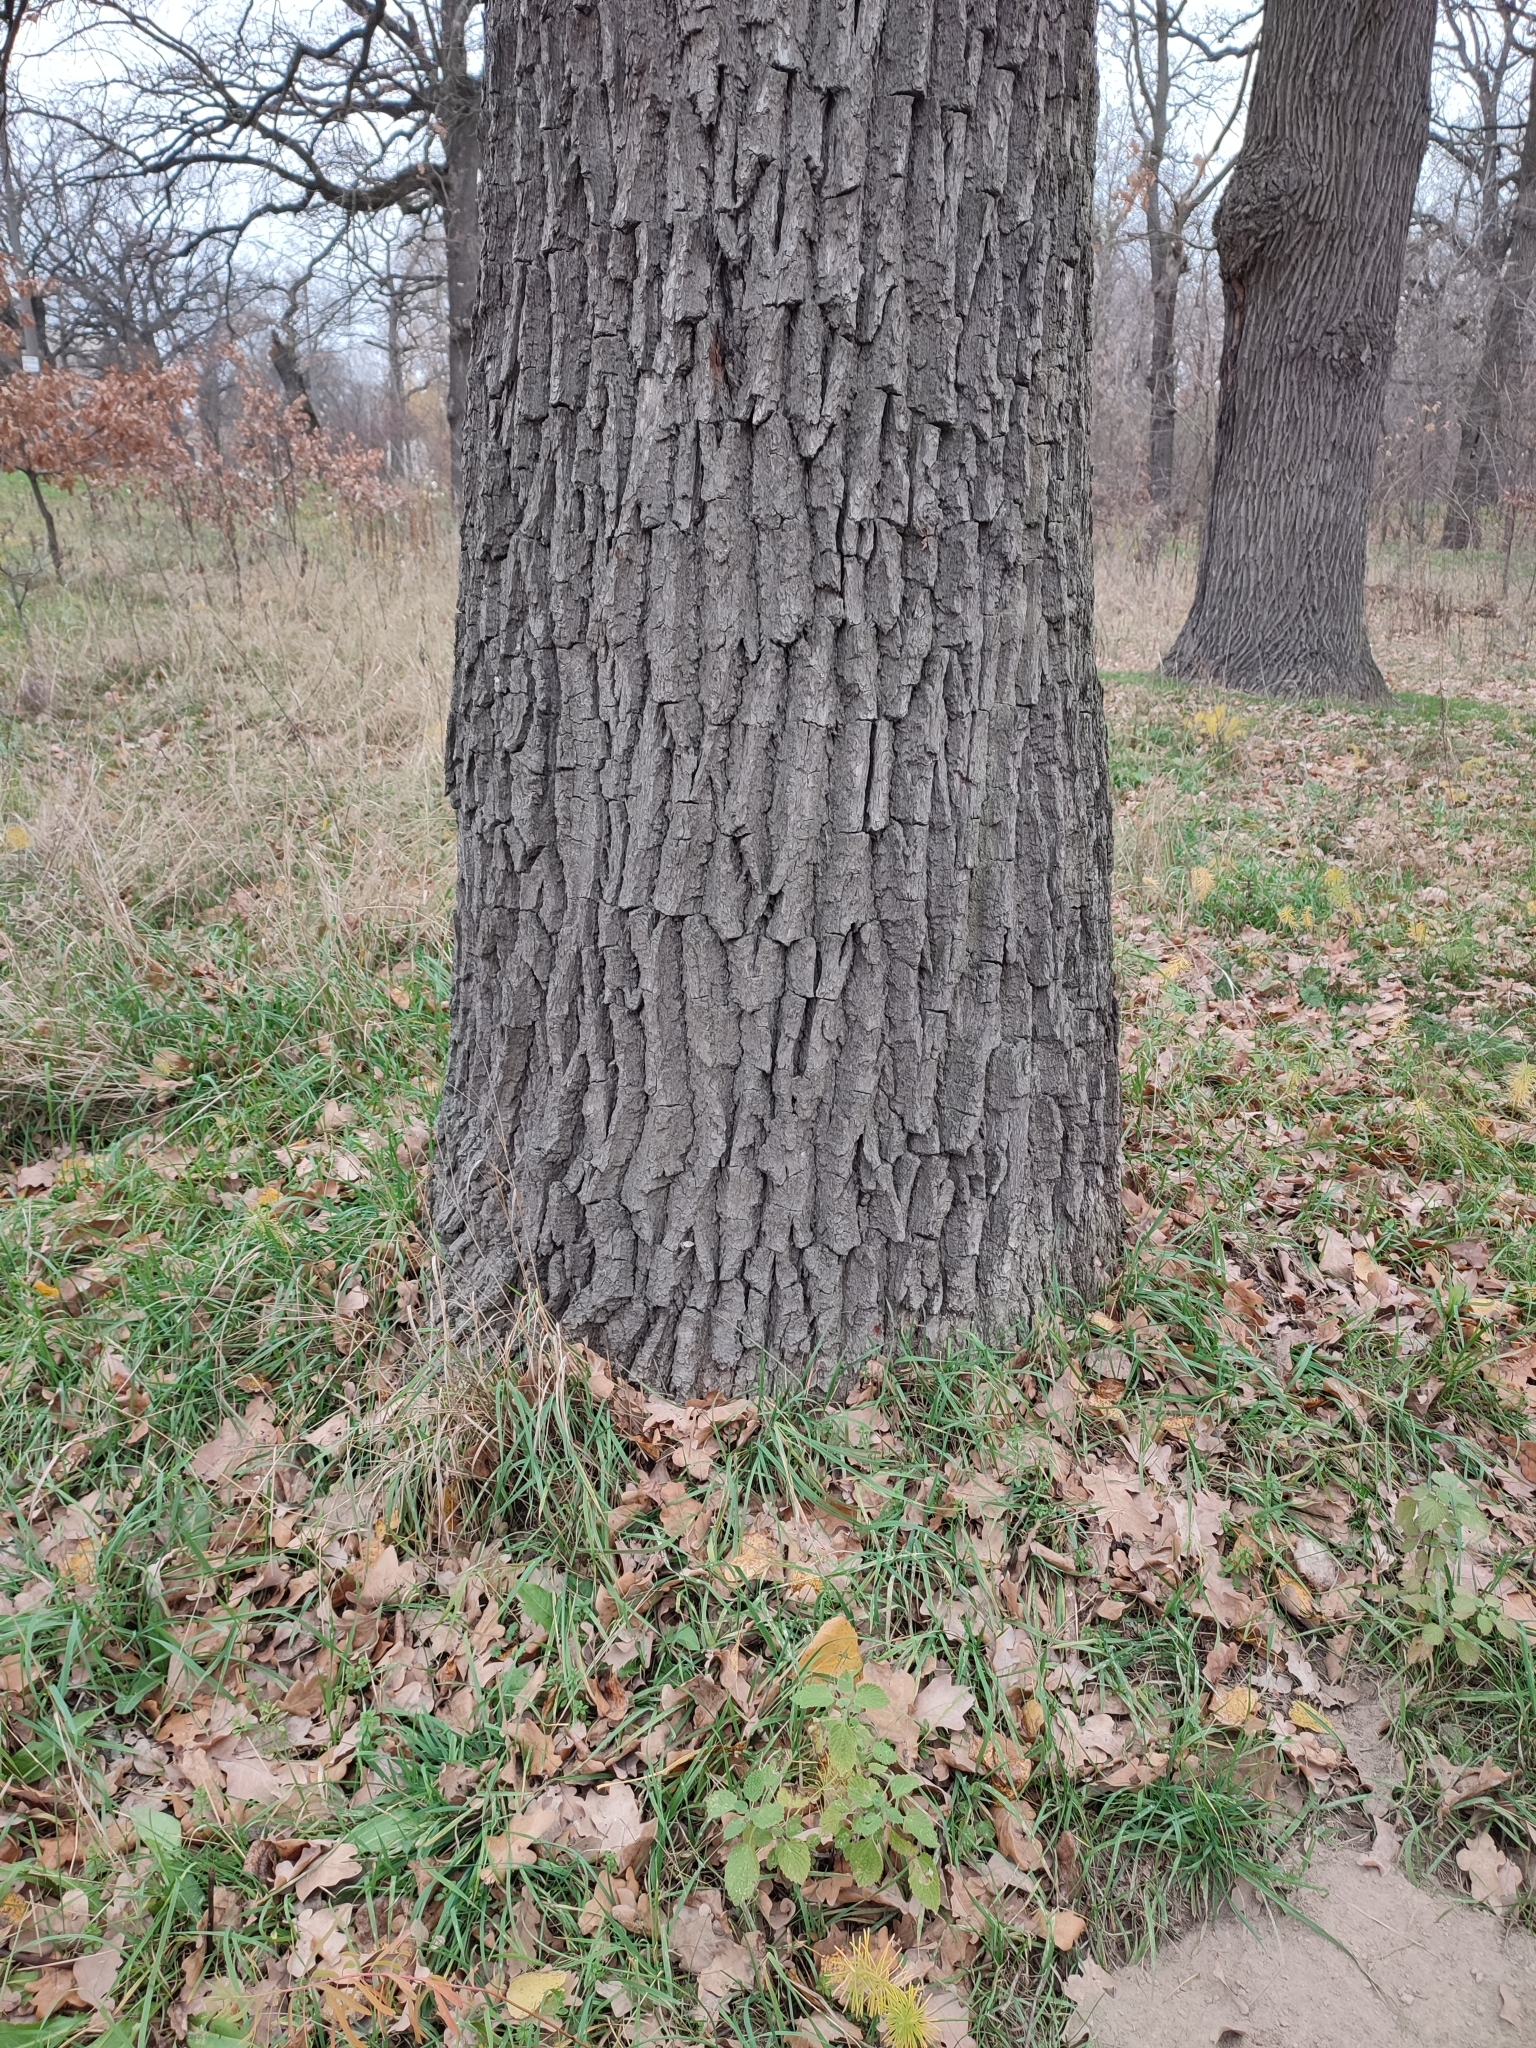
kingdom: Plantae
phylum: Tracheophyta
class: Magnoliopsida
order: Fagales
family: Fagaceae
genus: Quercus
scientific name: Quercus robur
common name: Pedunculate oak
